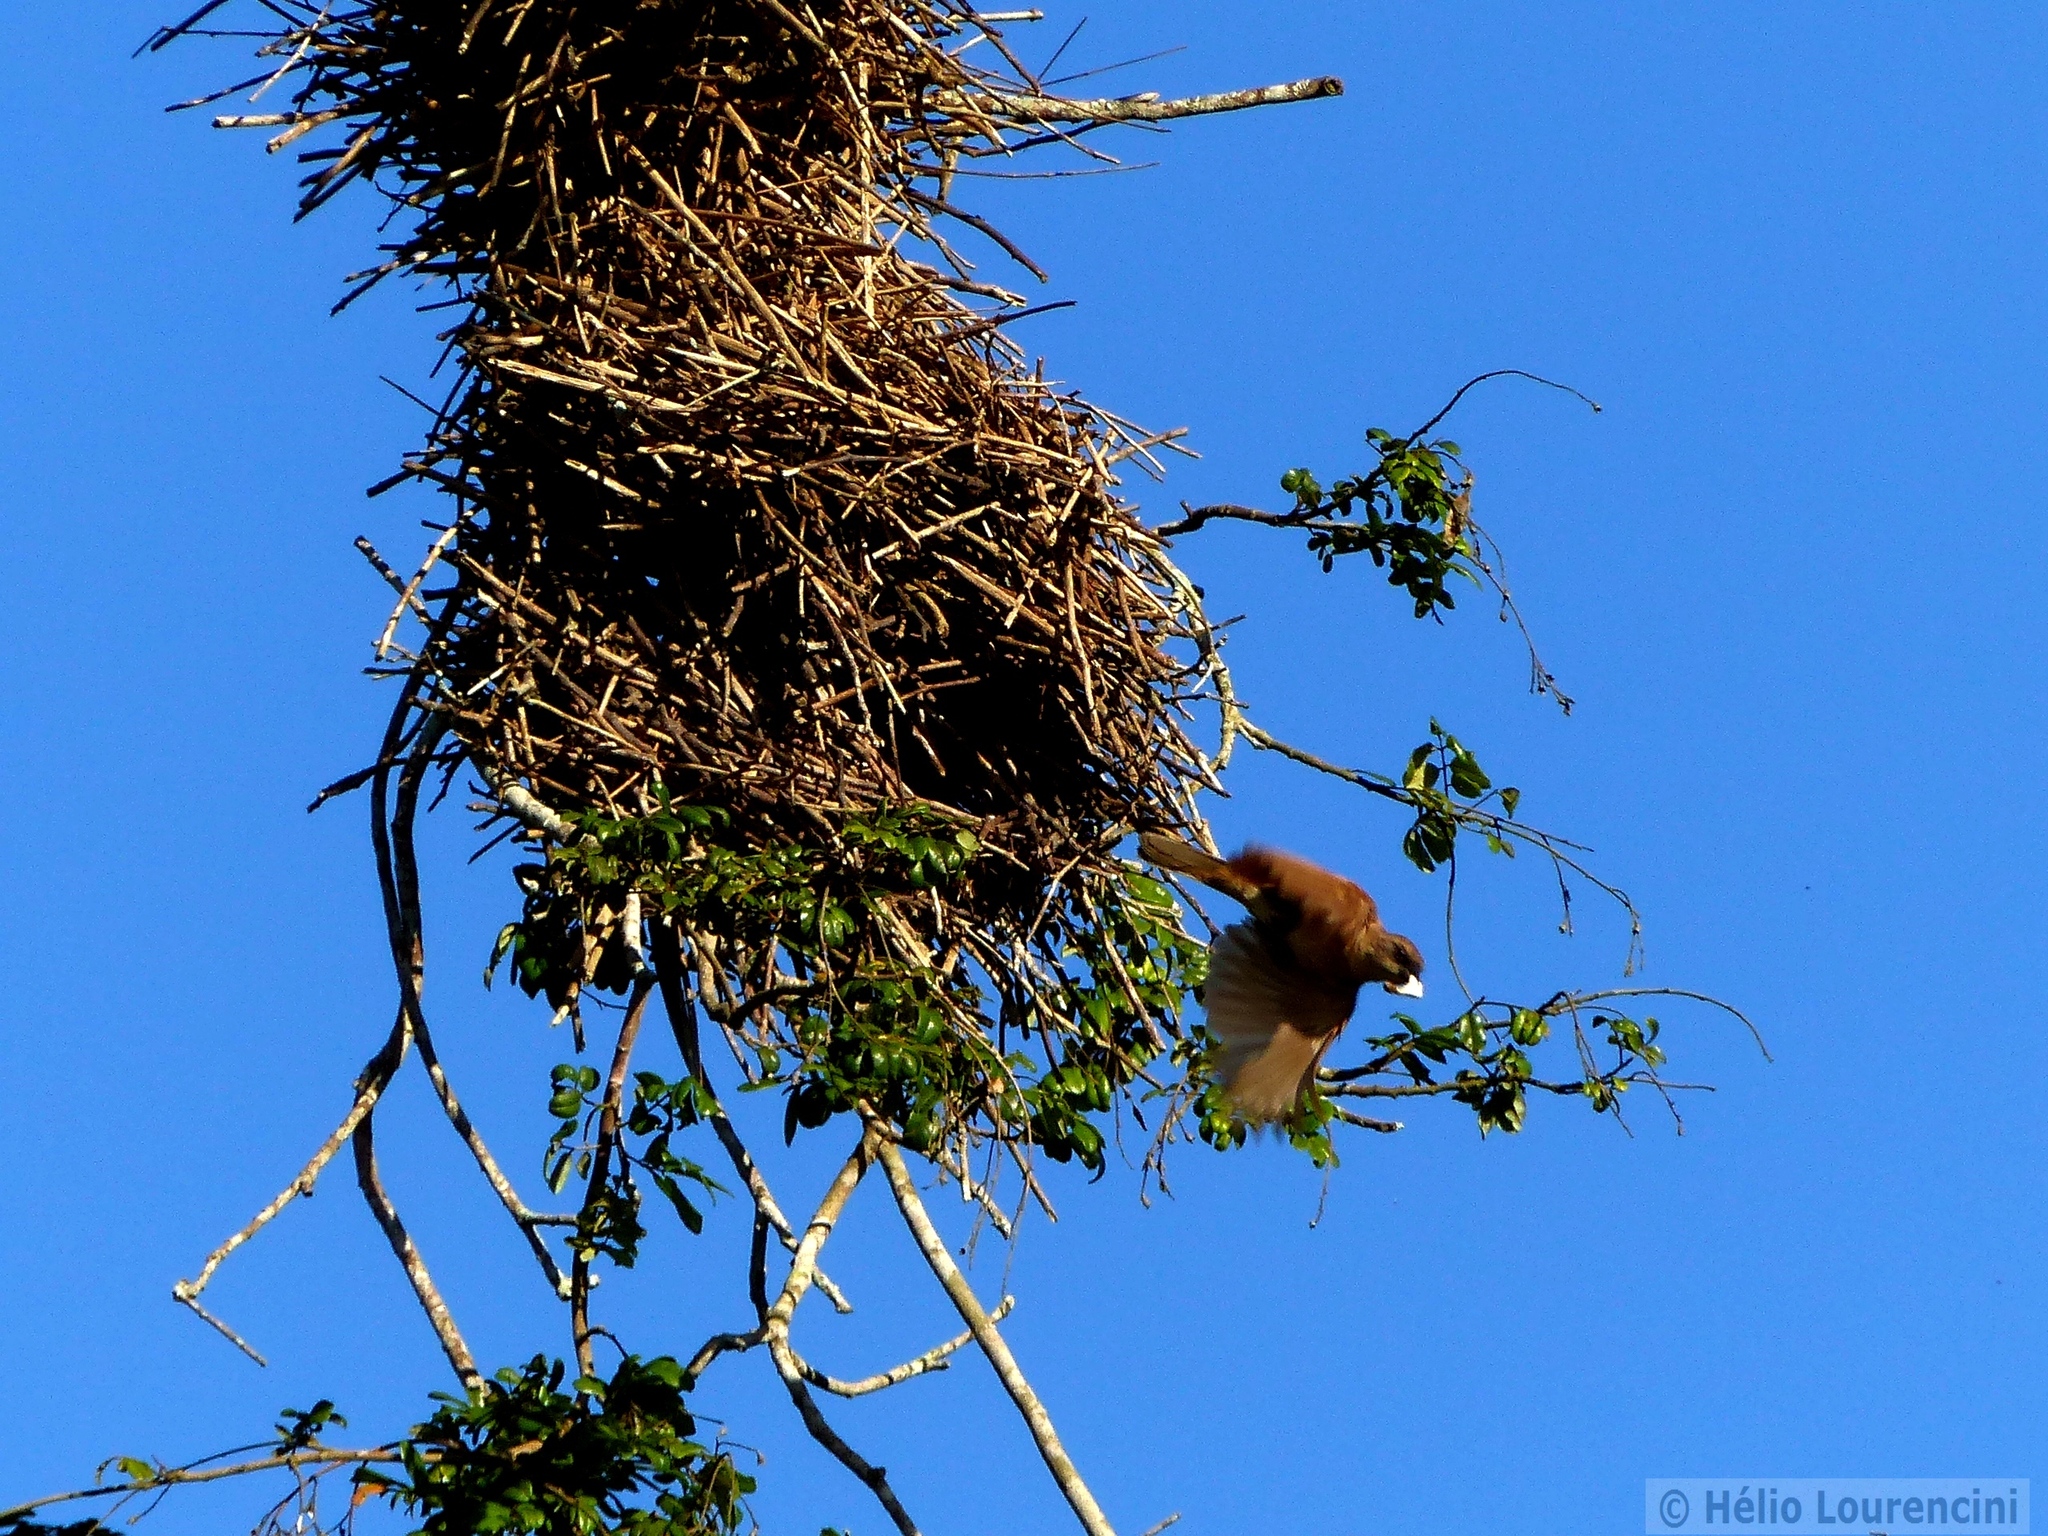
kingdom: Animalia
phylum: Chordata
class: Aves
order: Passeriformes
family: Icteridae
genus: Agelaioides
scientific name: Agelaioides badius
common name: Baywing
